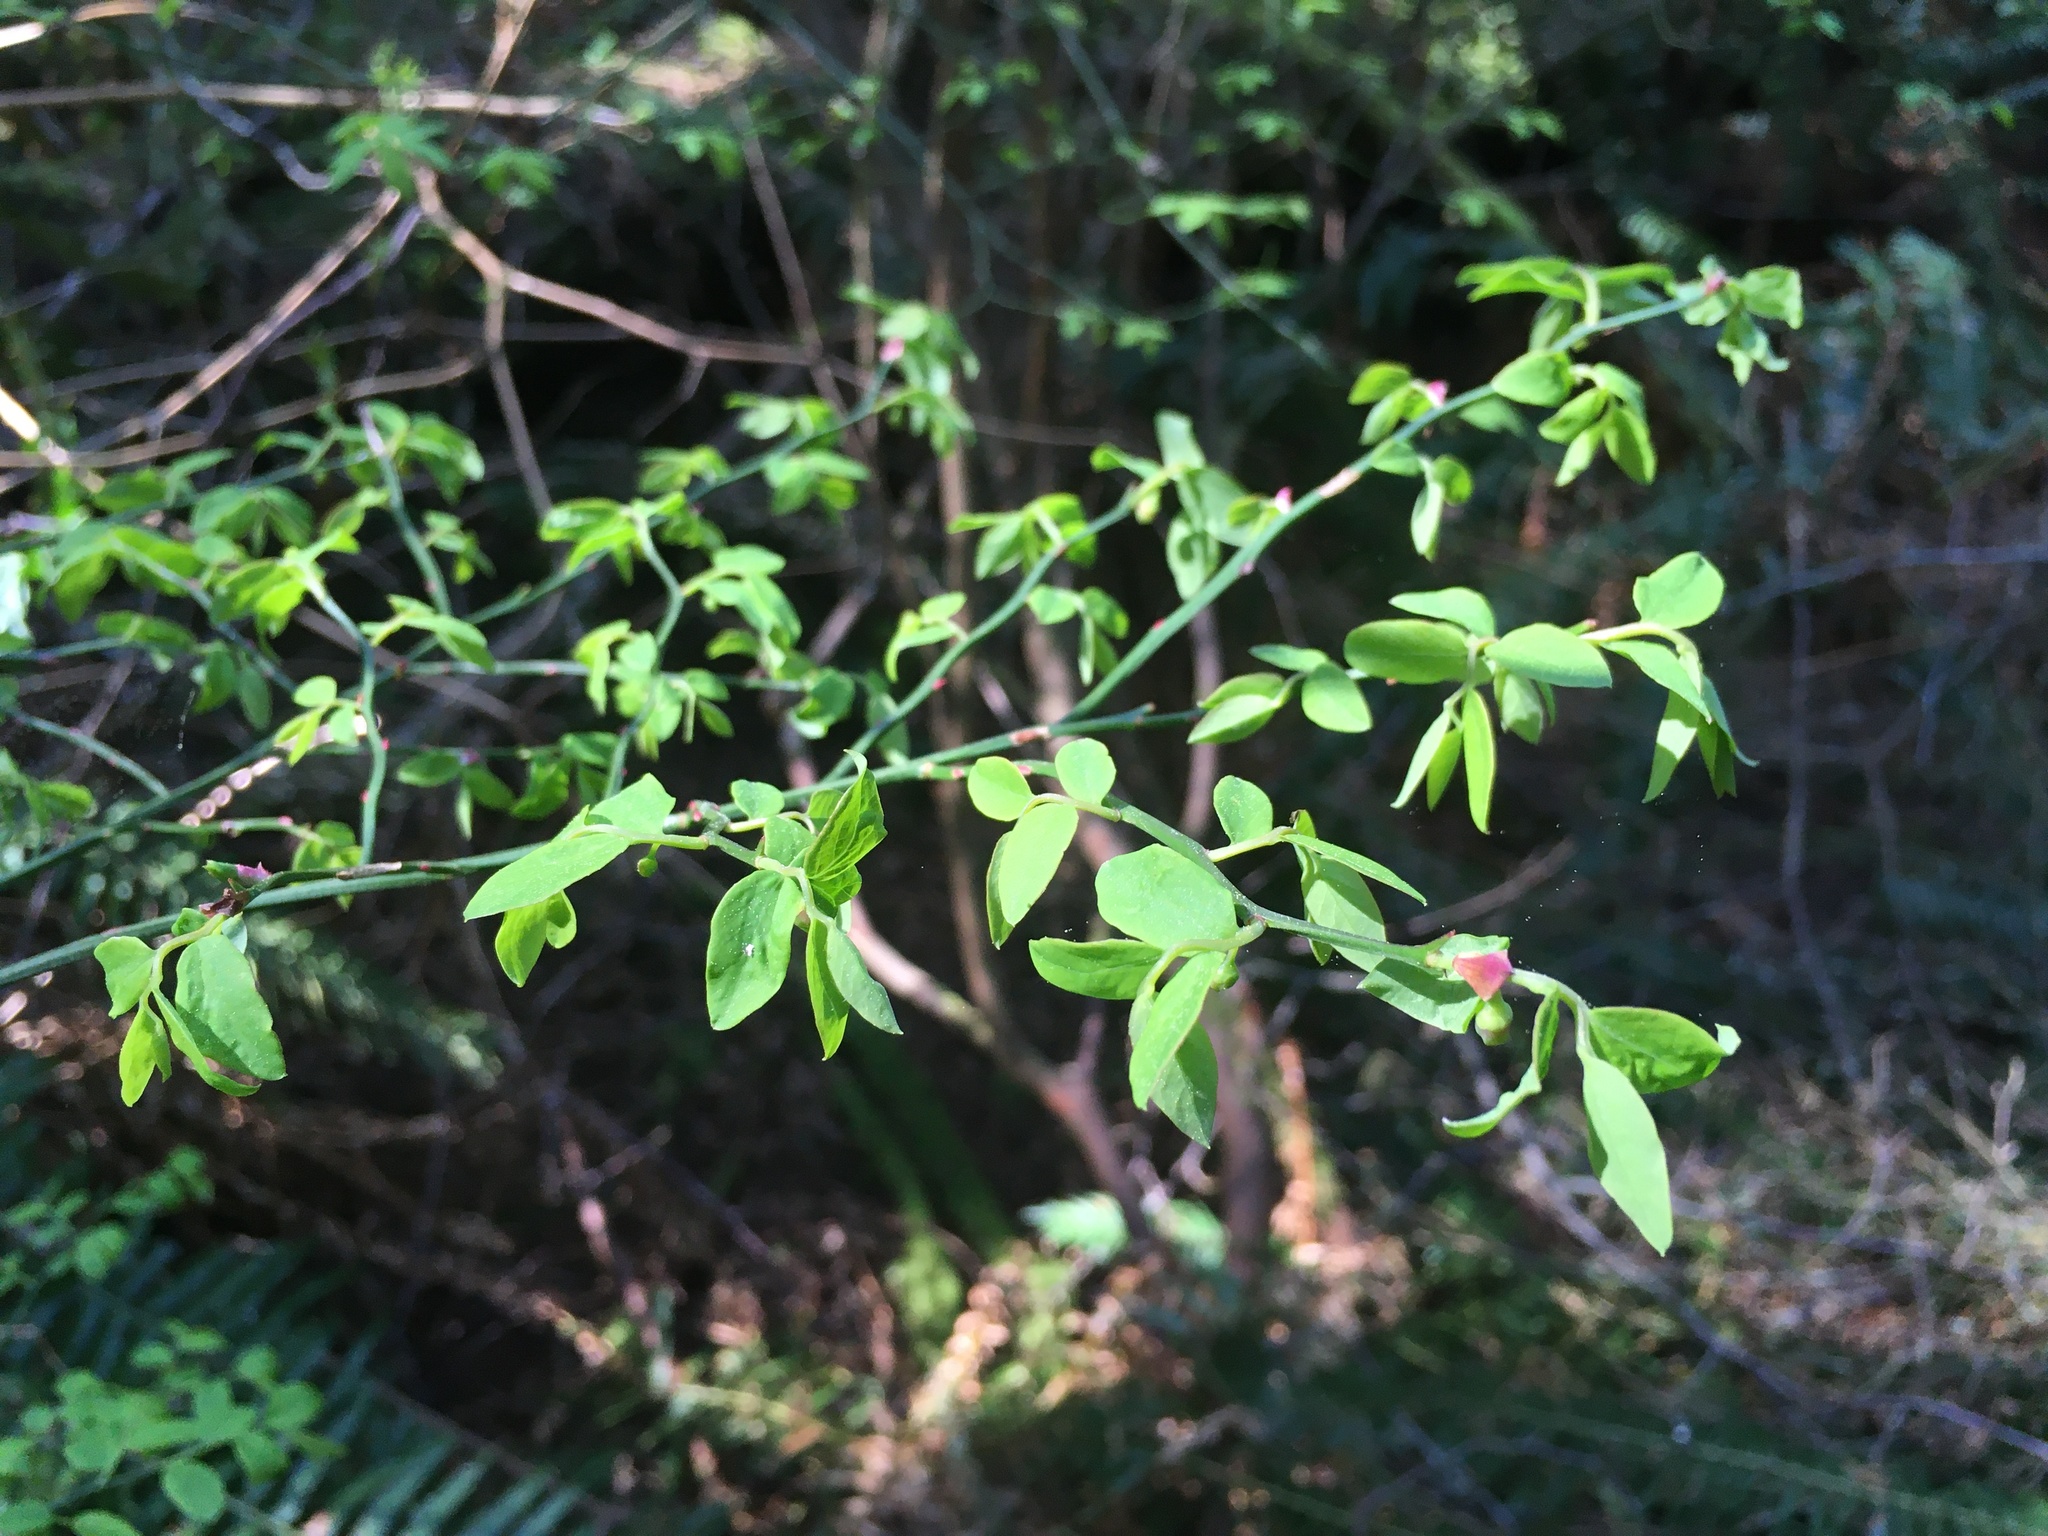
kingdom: Plantae
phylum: Tracheophyta
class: Magnoliopsida
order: Ericales
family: Ericaceae
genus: Vaccinium
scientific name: Vaccinium parvifolium
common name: Red-huckleberry
